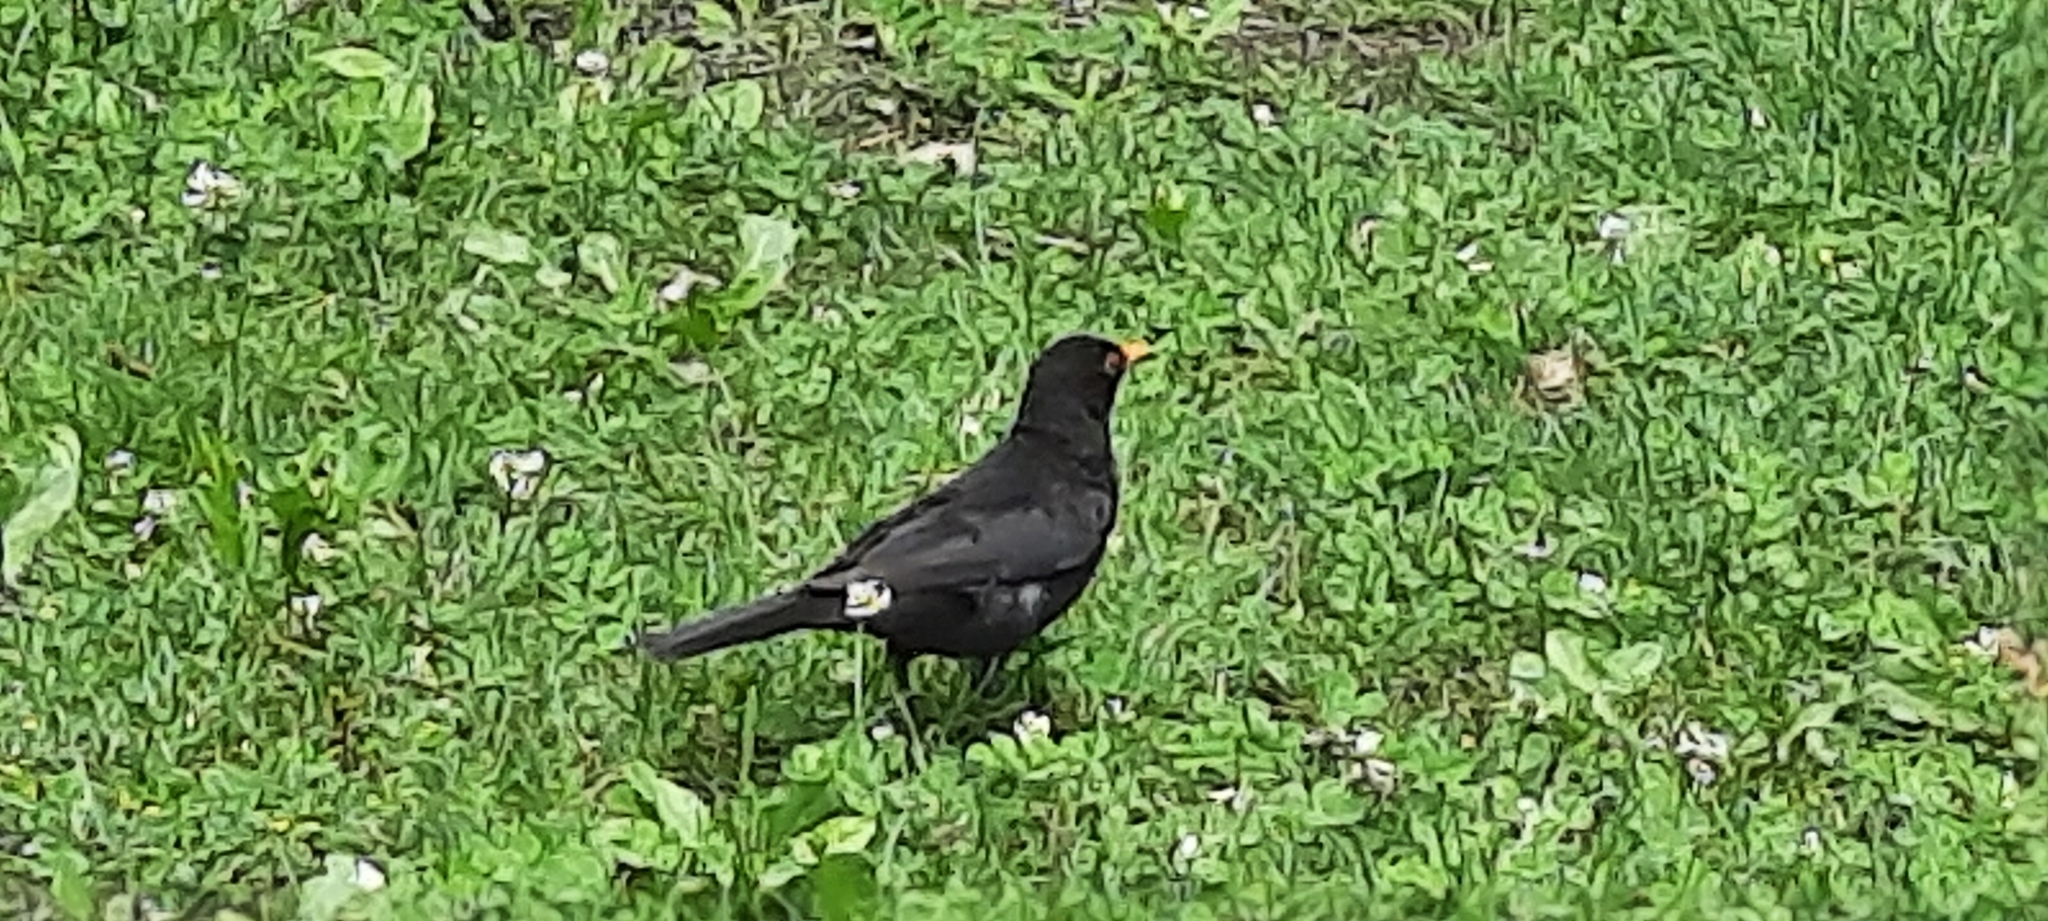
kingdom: Animalia
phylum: Chordata
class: Aves
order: Passeriformes
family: Turdidae
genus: Turdus
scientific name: Turdus merula
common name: Common blackbird
